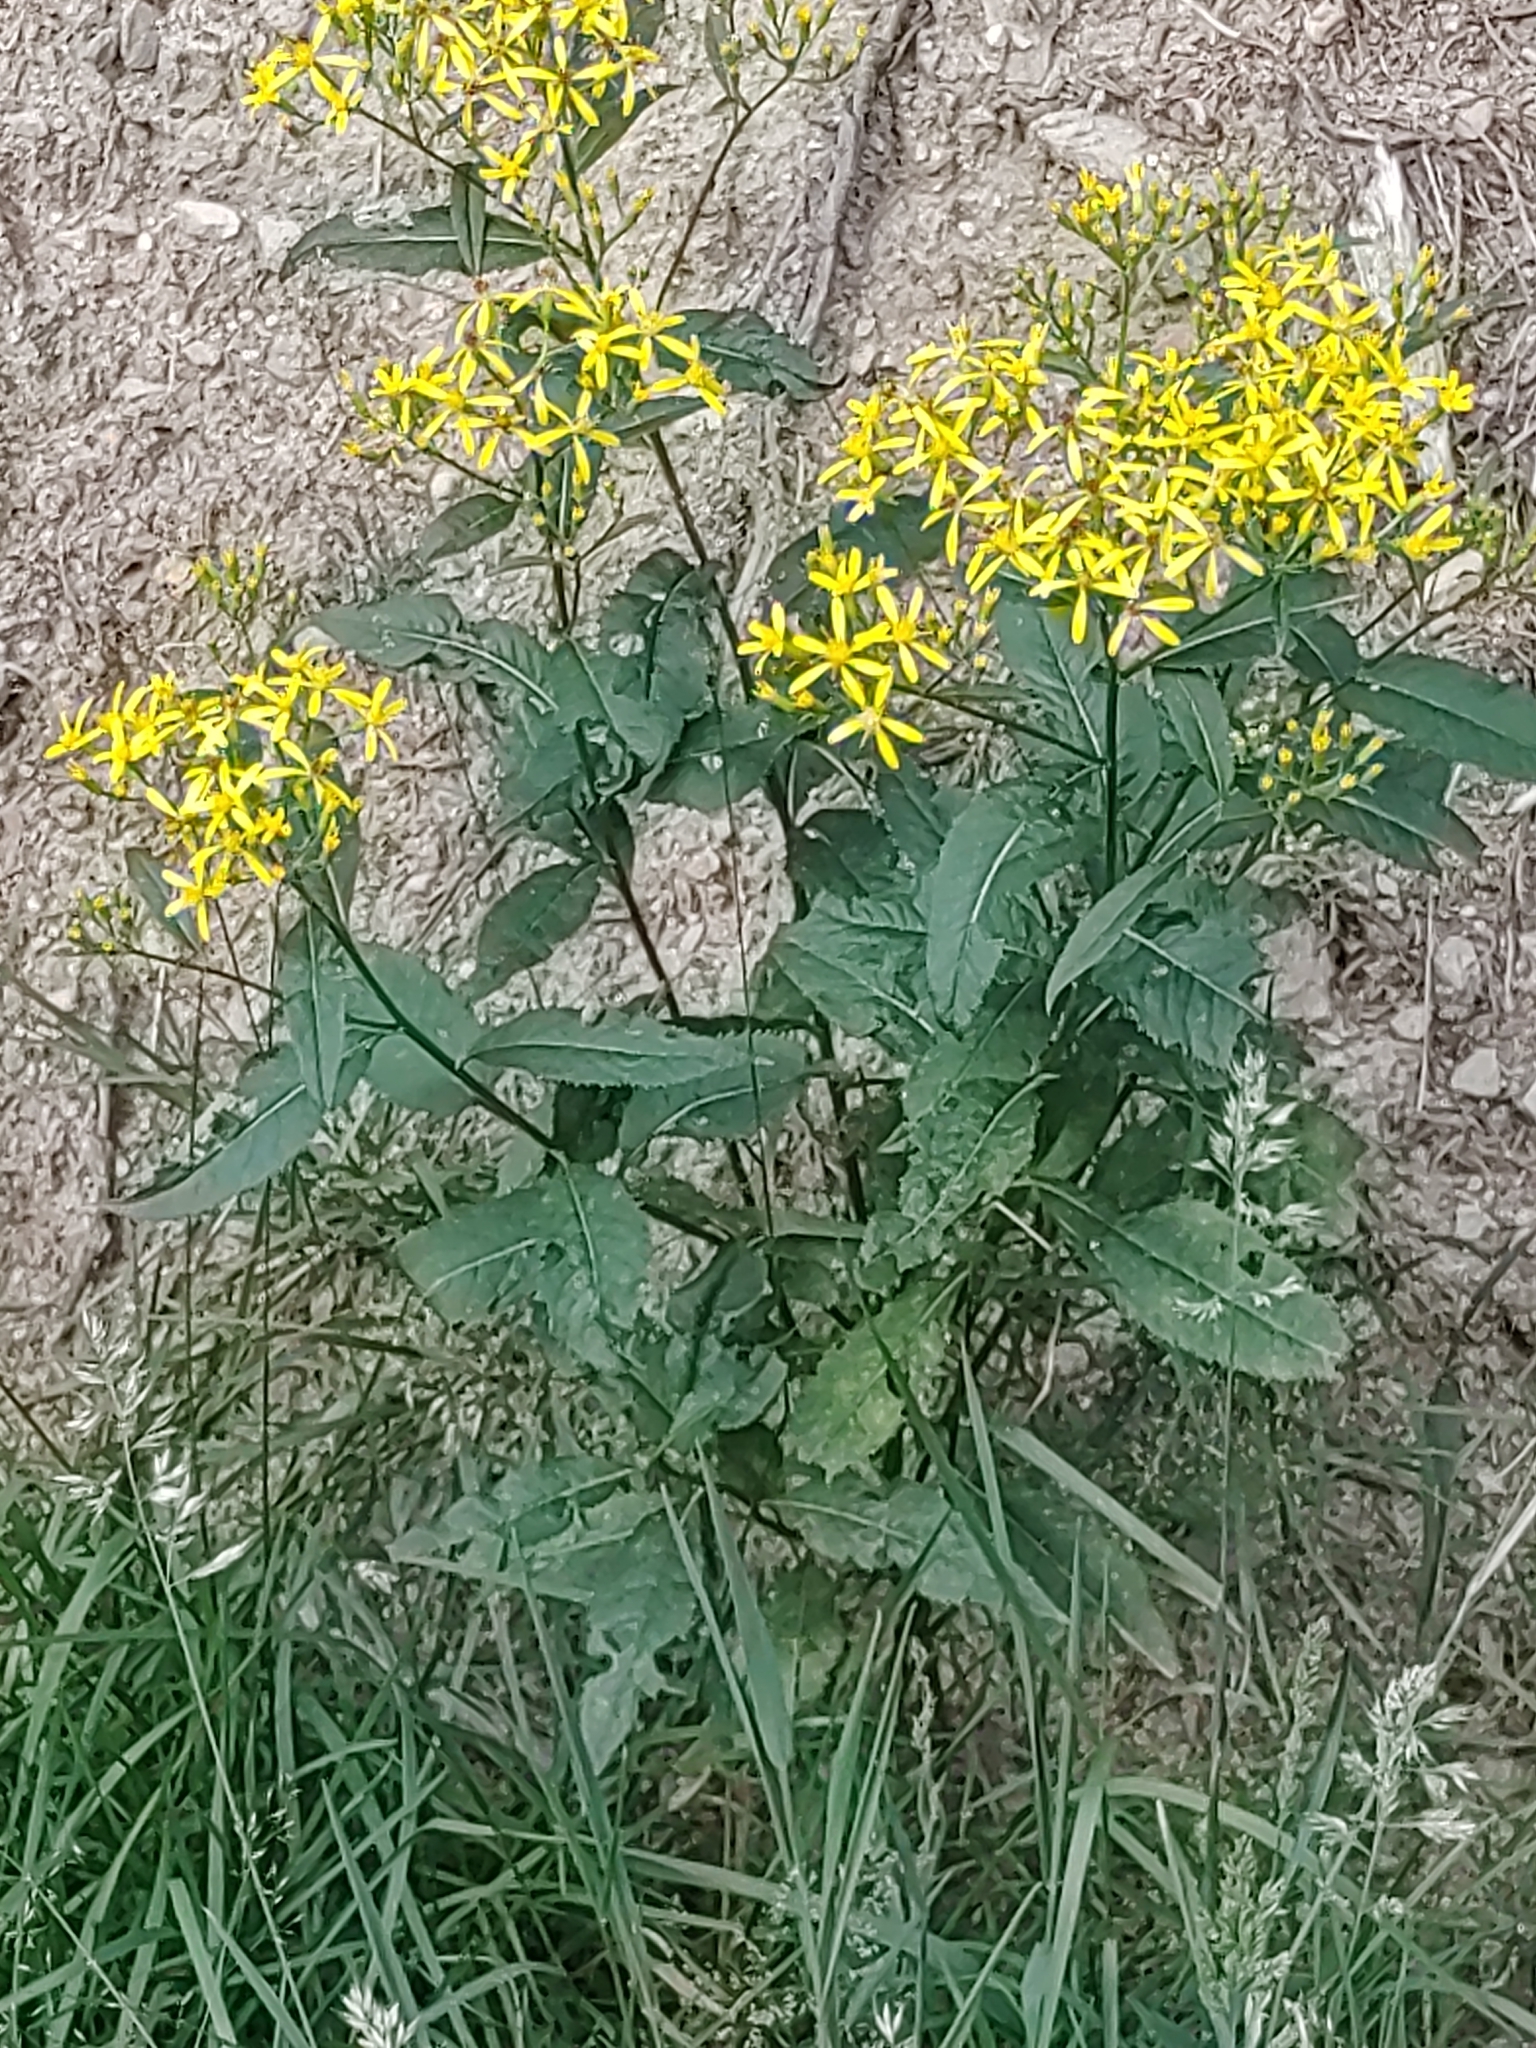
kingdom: Plantae
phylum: Tracheophyta
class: Magnoliopsida
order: Asterales
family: Asteraceae
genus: Senecio
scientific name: Senecio ovatus
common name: Wood ragwort
